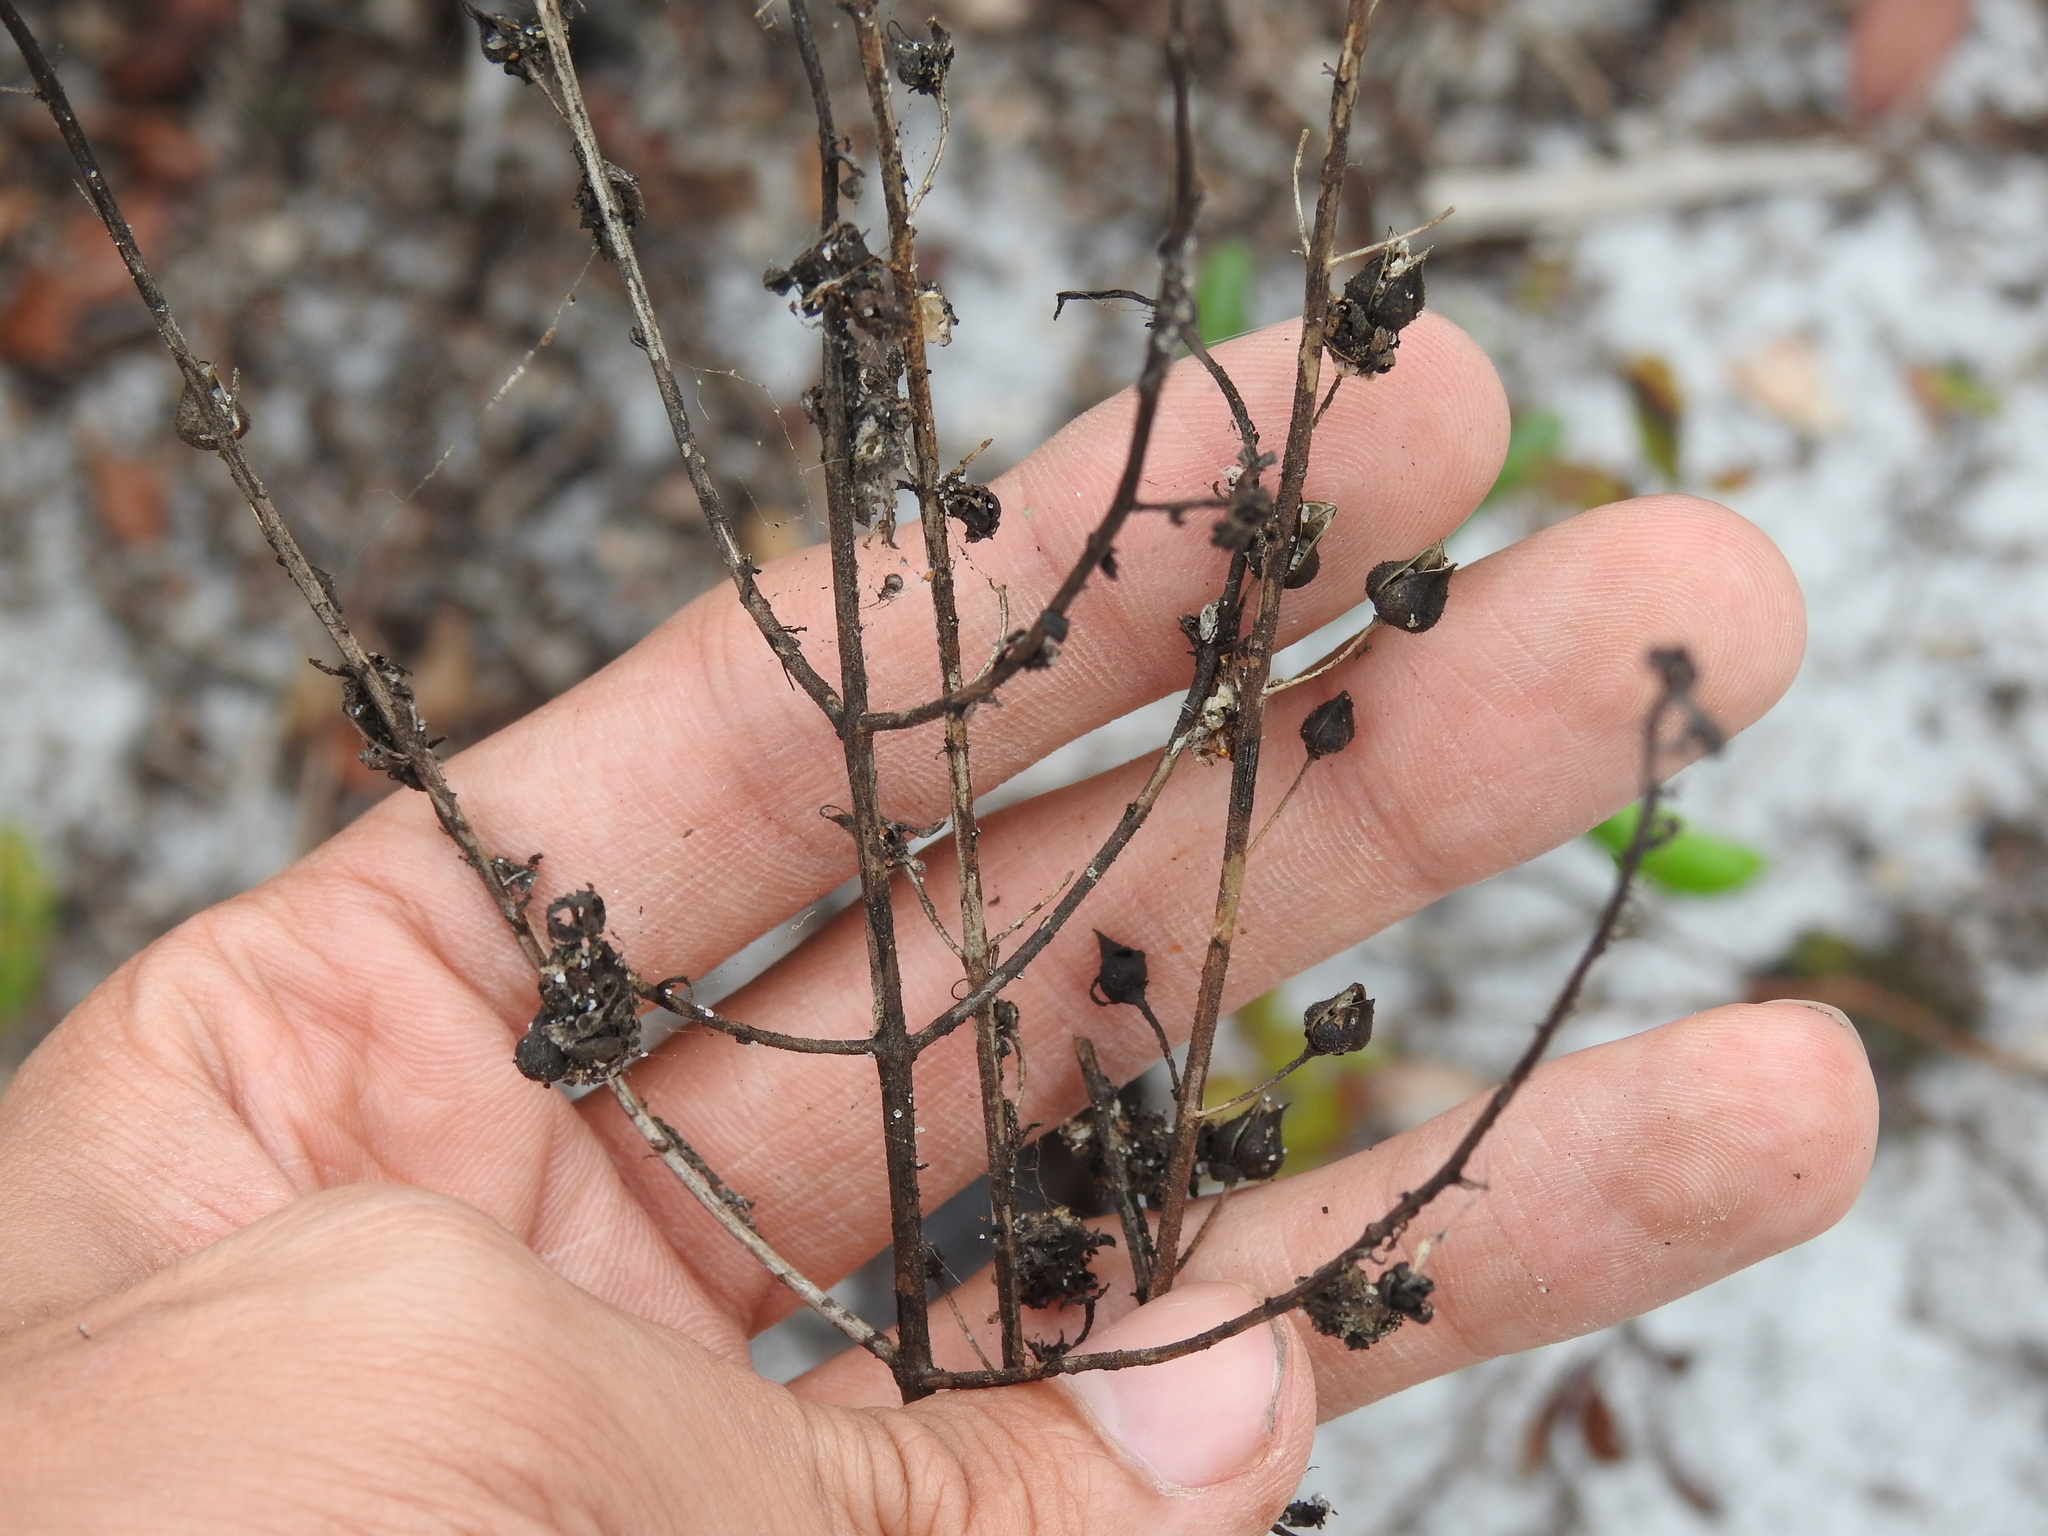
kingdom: Plantae
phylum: Tracheophyta
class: Magnoliopsida
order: Lamiales
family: Orobanchaceae
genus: Seymeria
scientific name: Seymeria pectinata
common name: Piedmont black-senna
